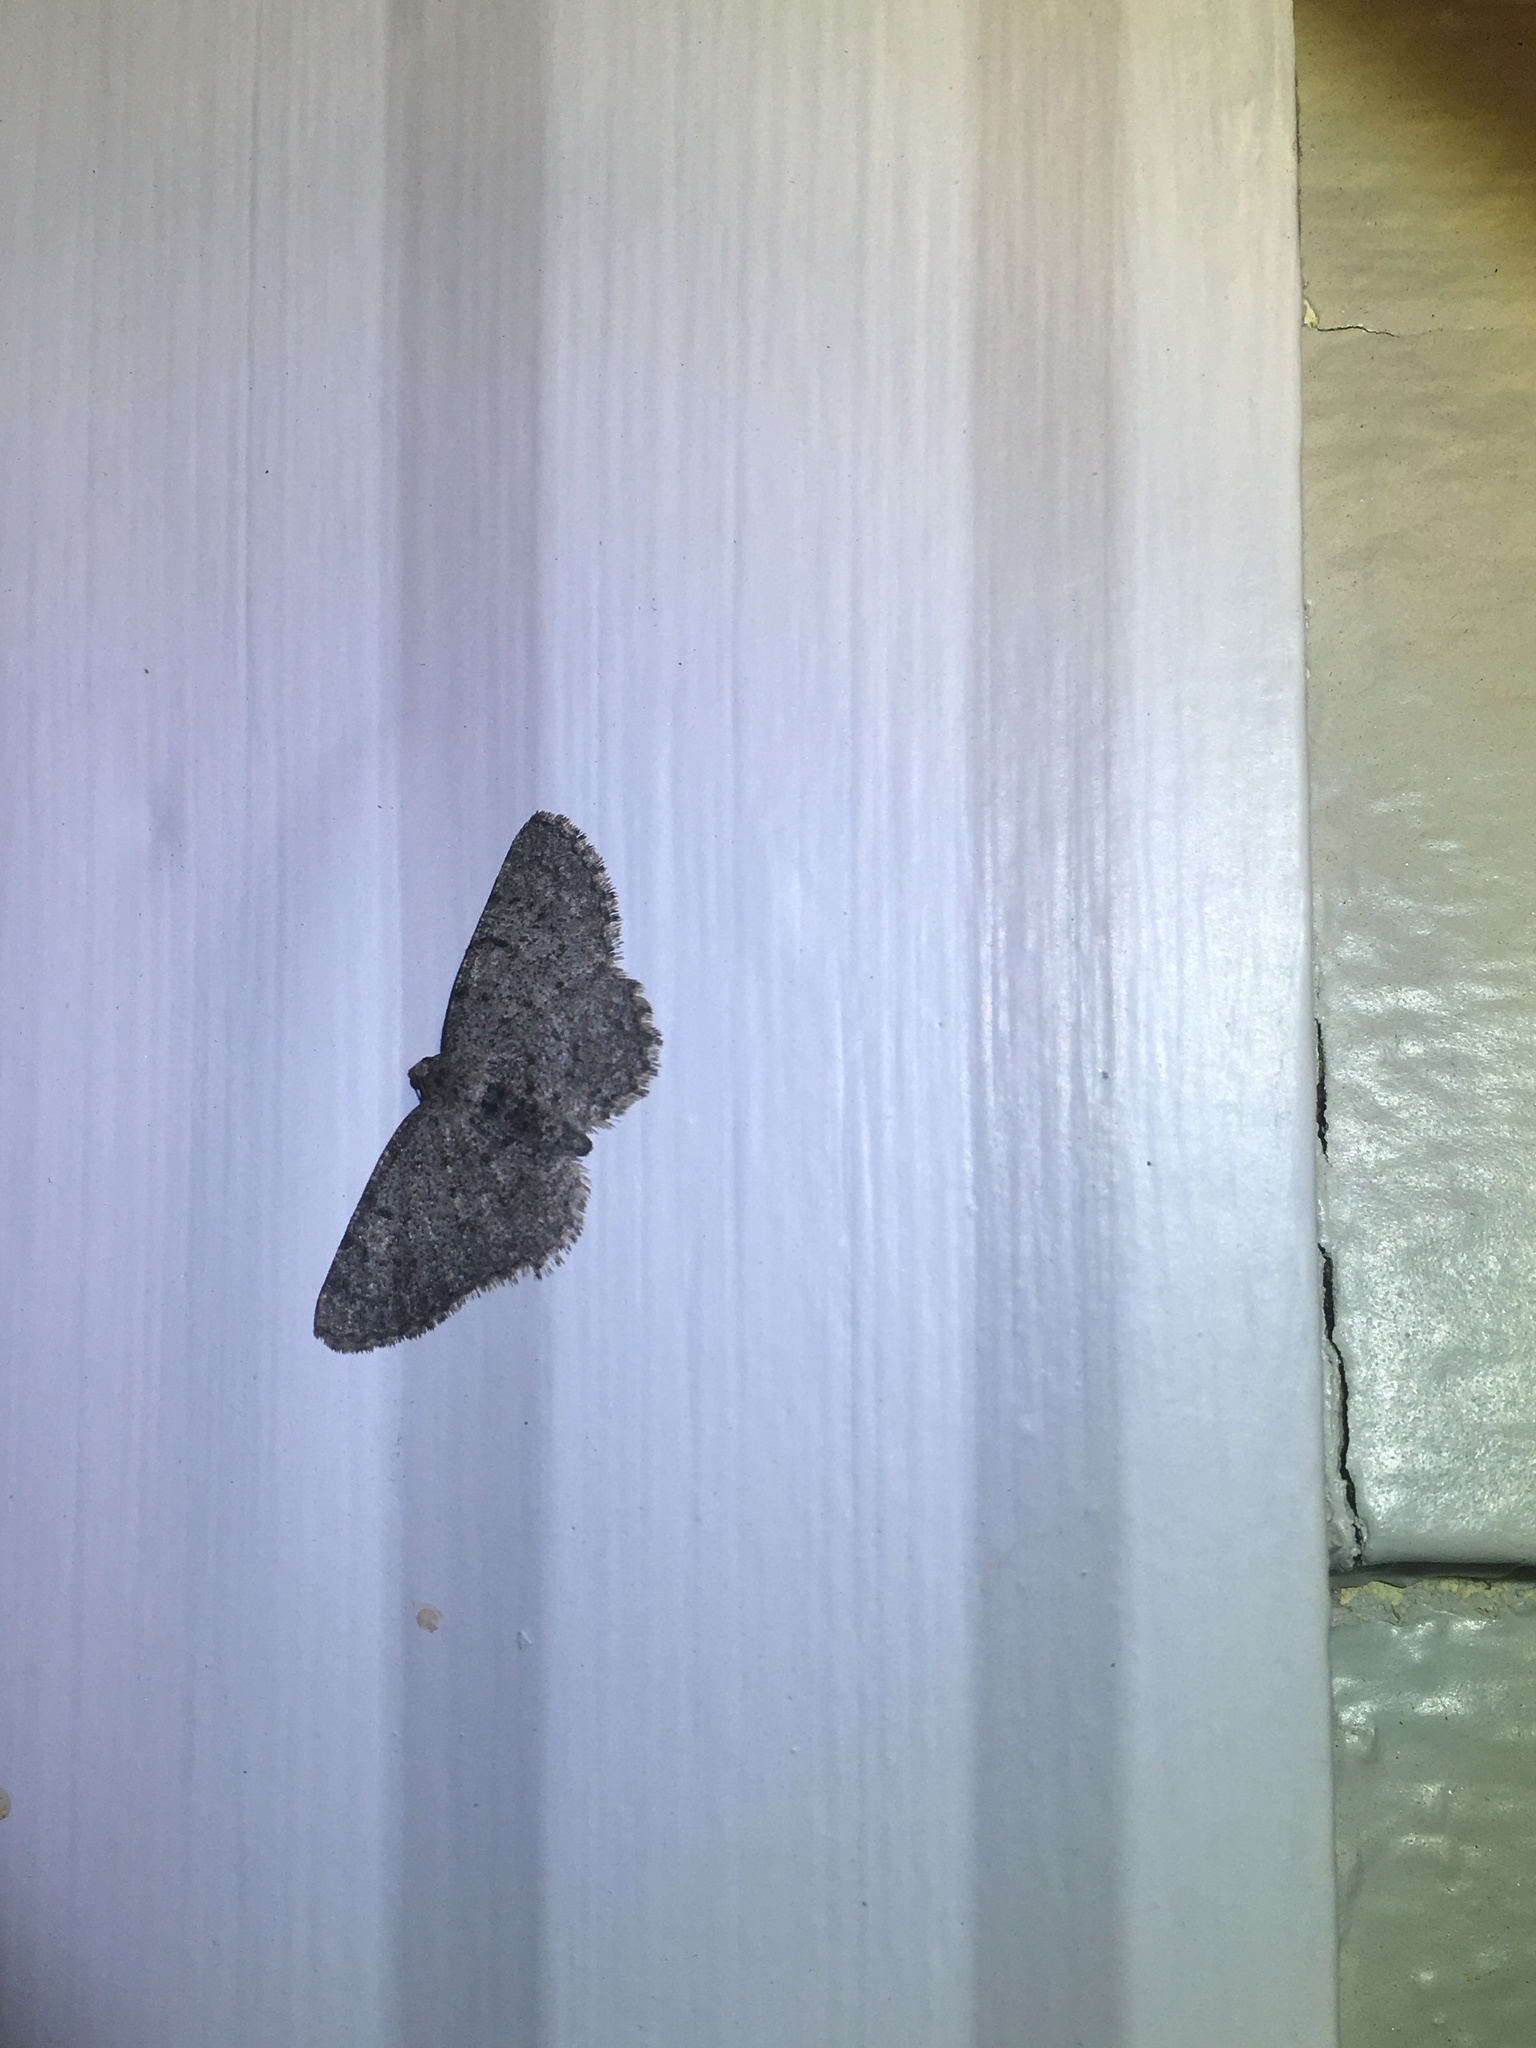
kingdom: Animalia
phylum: Arthropoda
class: Insecta
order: Lepidoptera
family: Geometridae
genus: Aethalura
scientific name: Aethalura intertexta
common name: Four-barred gray
